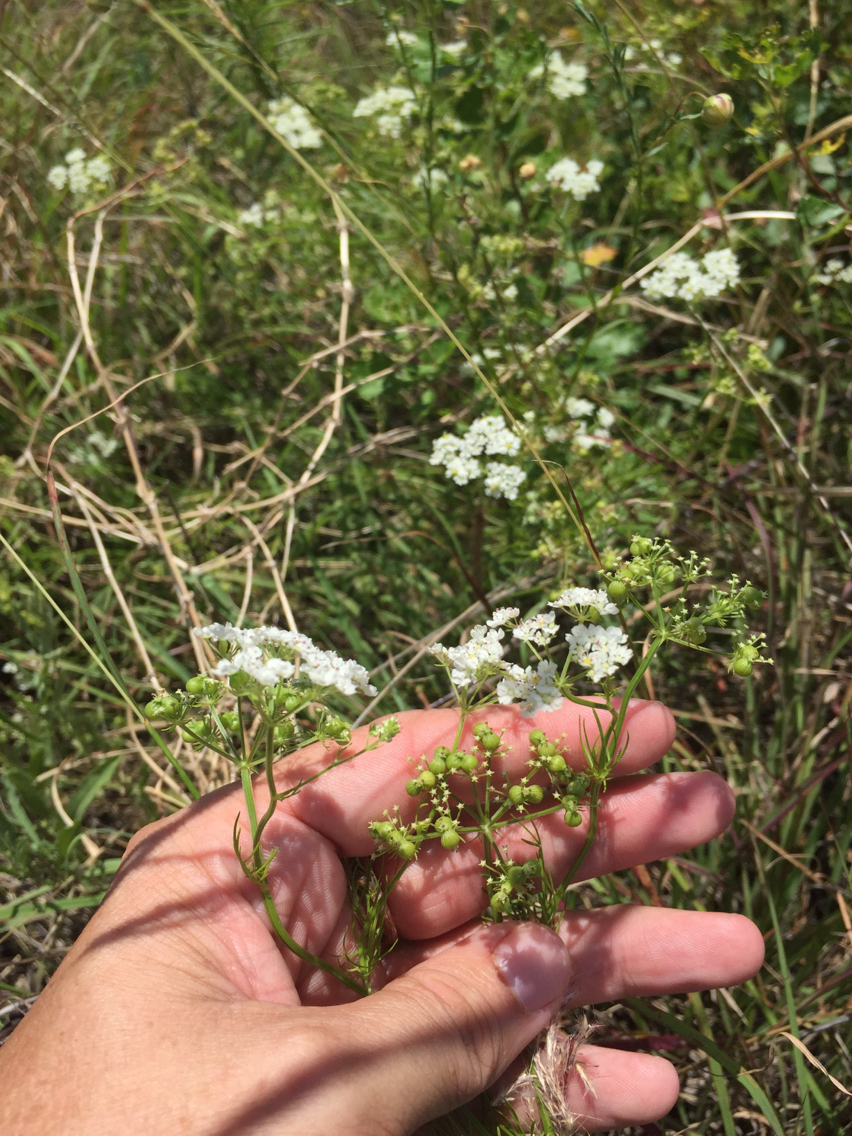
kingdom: Plantae
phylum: Tracheophyta
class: Magnoliopsida
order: Apiales
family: Apiaceae
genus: Atrema
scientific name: Atrema americanum
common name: Prairie-bishop
